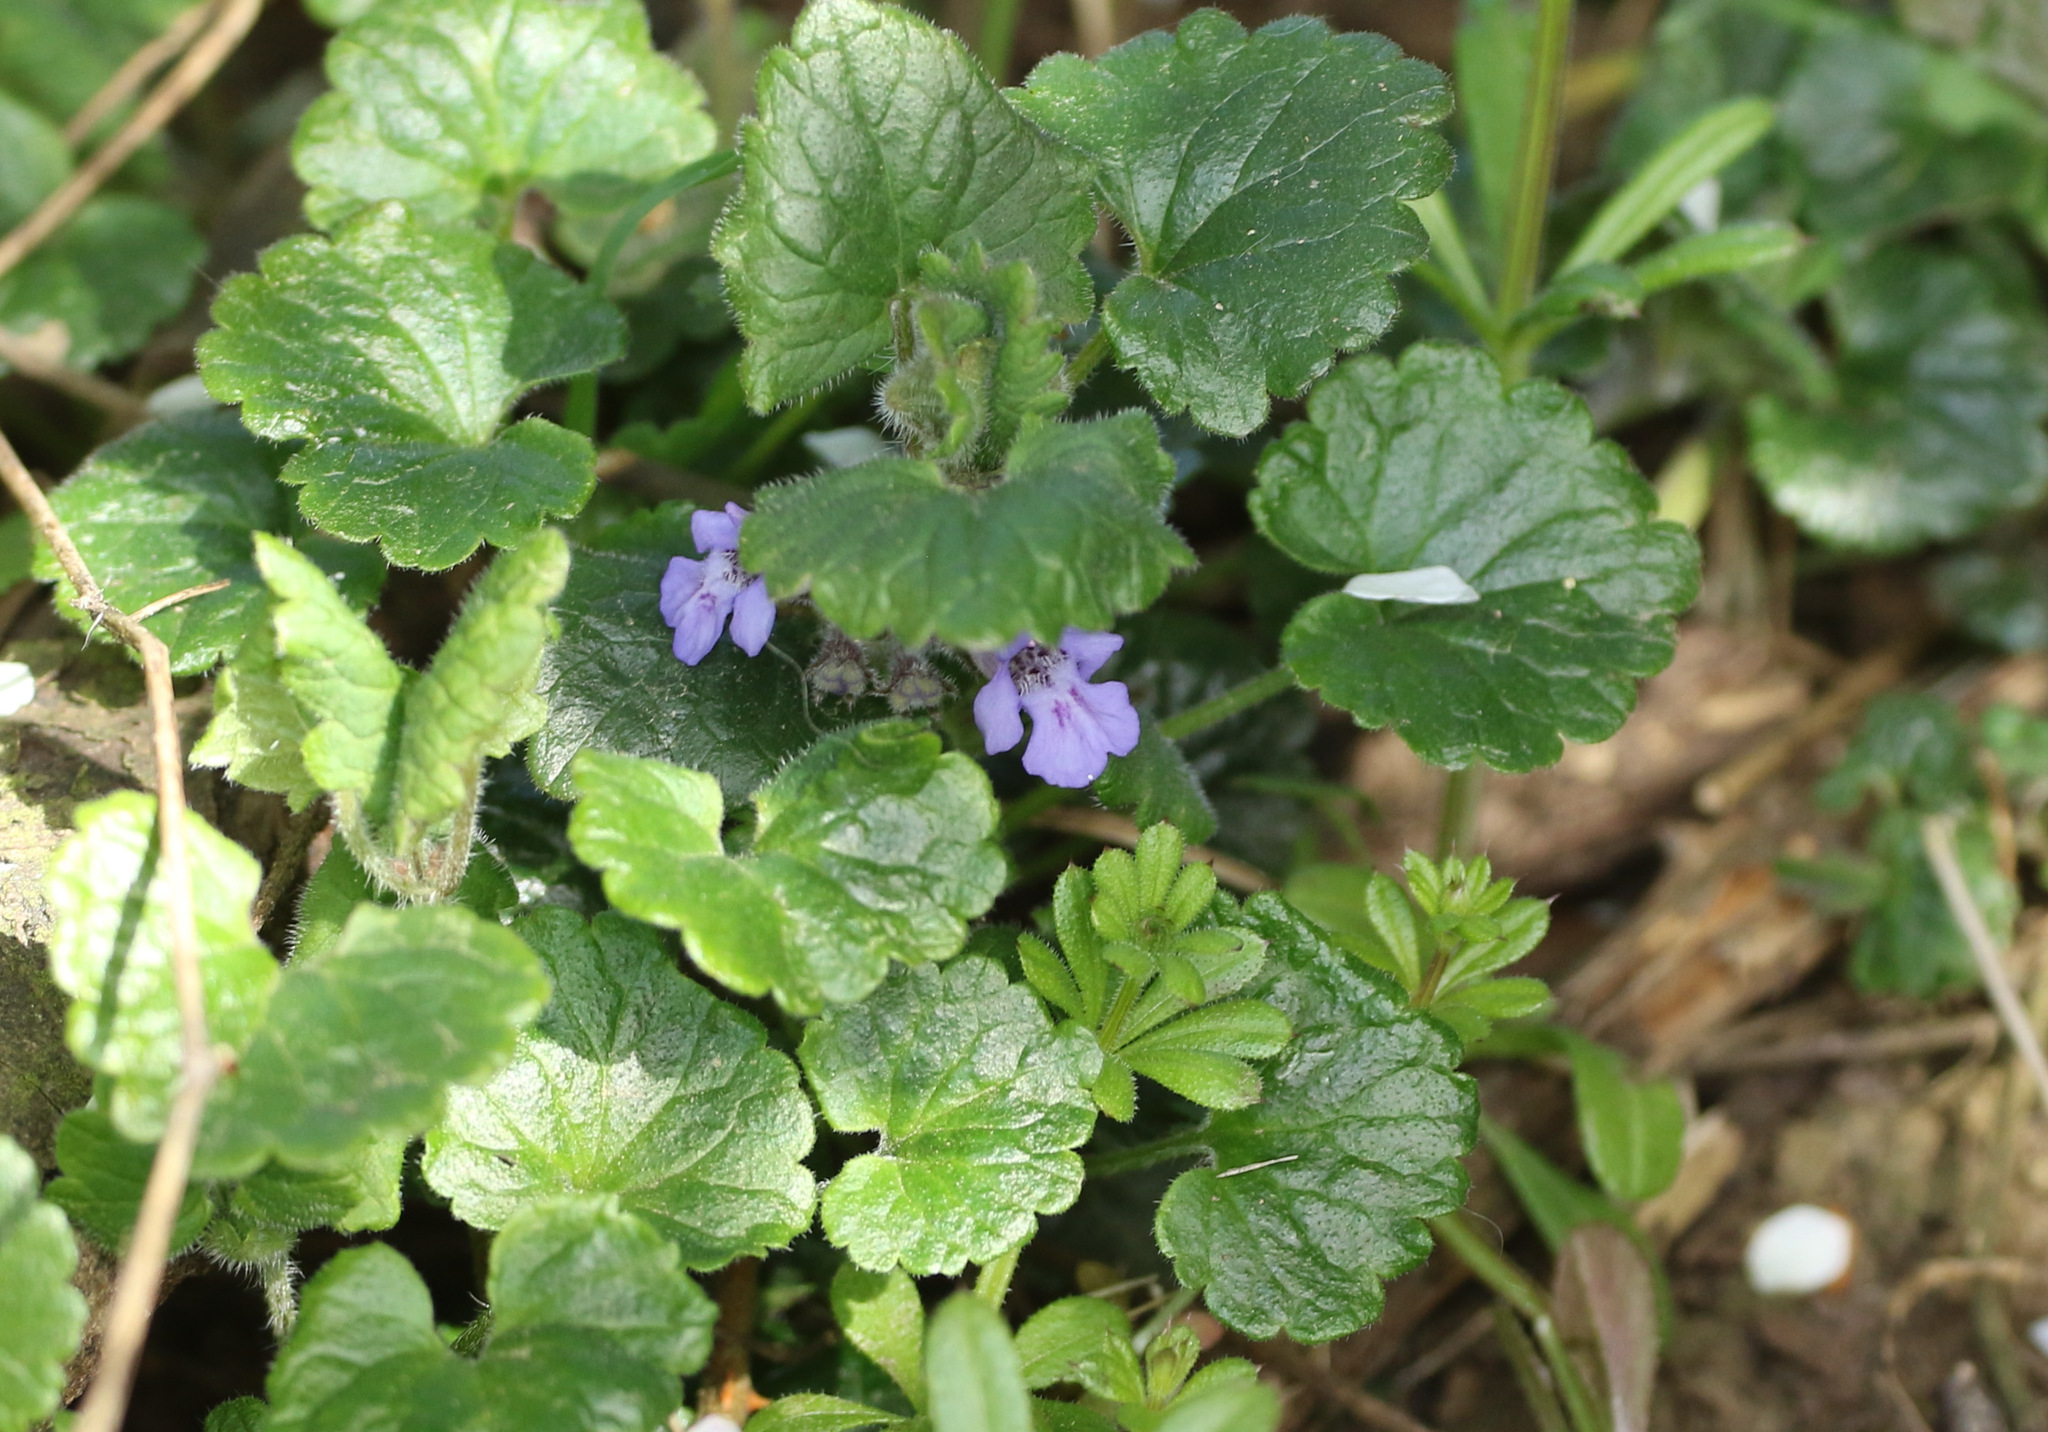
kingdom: Plantae
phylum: Tracheophyta
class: Magnoliopsida
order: Lamiales
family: Lamiaceae
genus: Glechoma
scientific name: Glechoma hederacea
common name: Ground ivy
